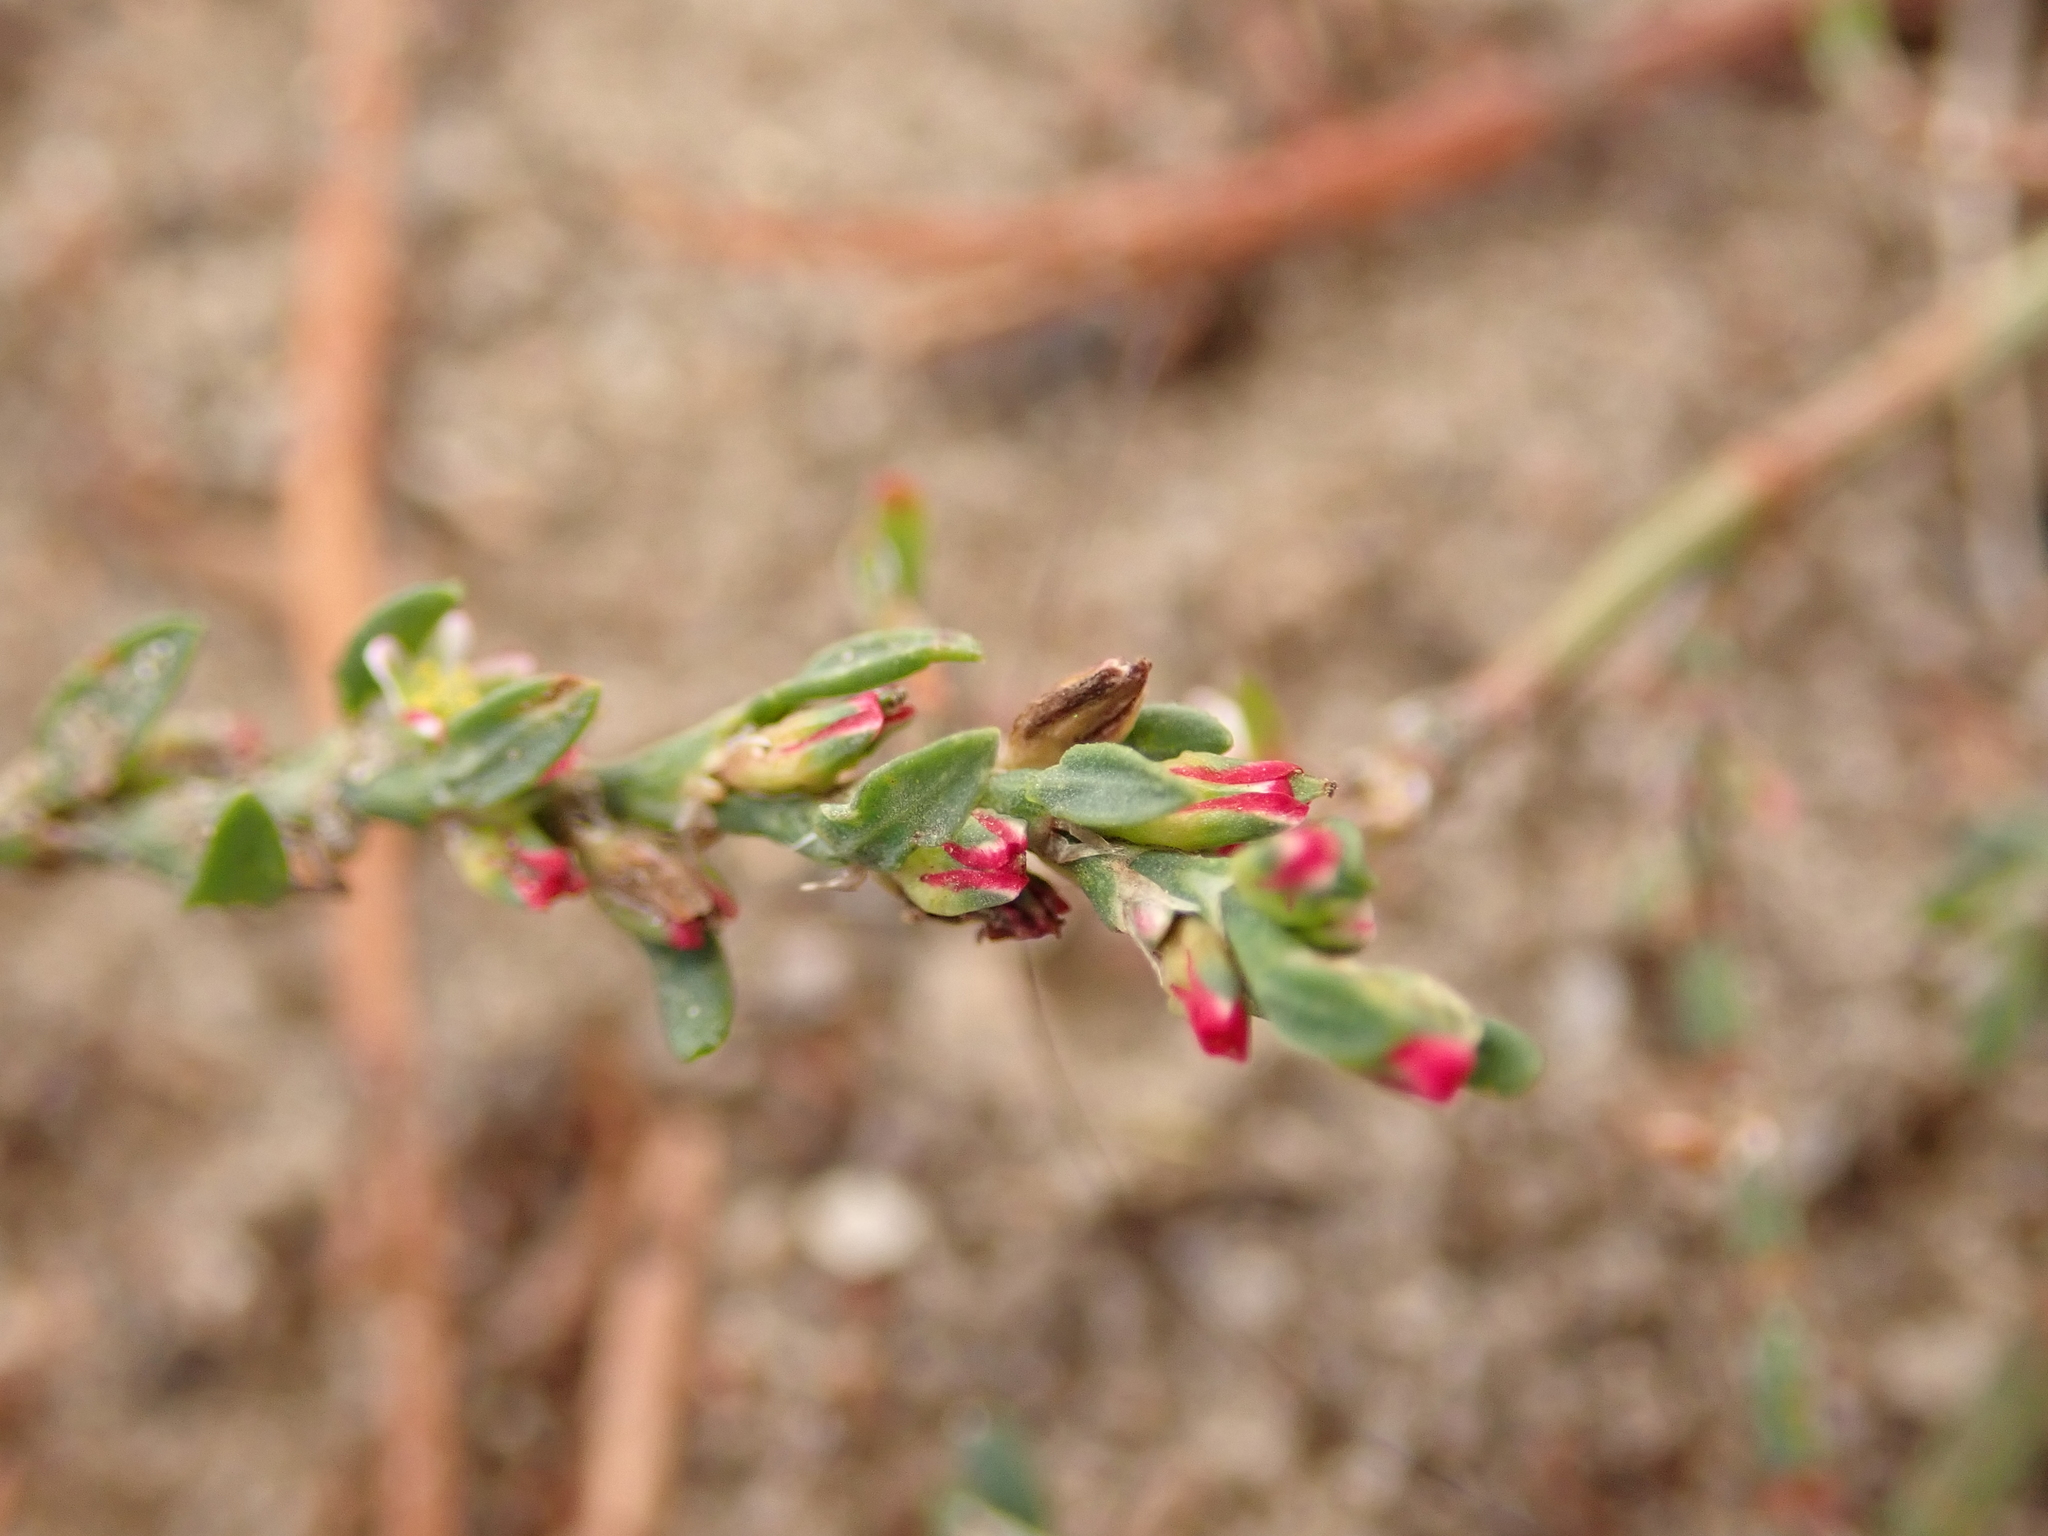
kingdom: Plantae
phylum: Tracheophyta
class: Magnoliopsida
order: Caryophyllales
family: Polygonaceae
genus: Polygonum
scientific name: Polygonum aviculare
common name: Prostrate knotweed
